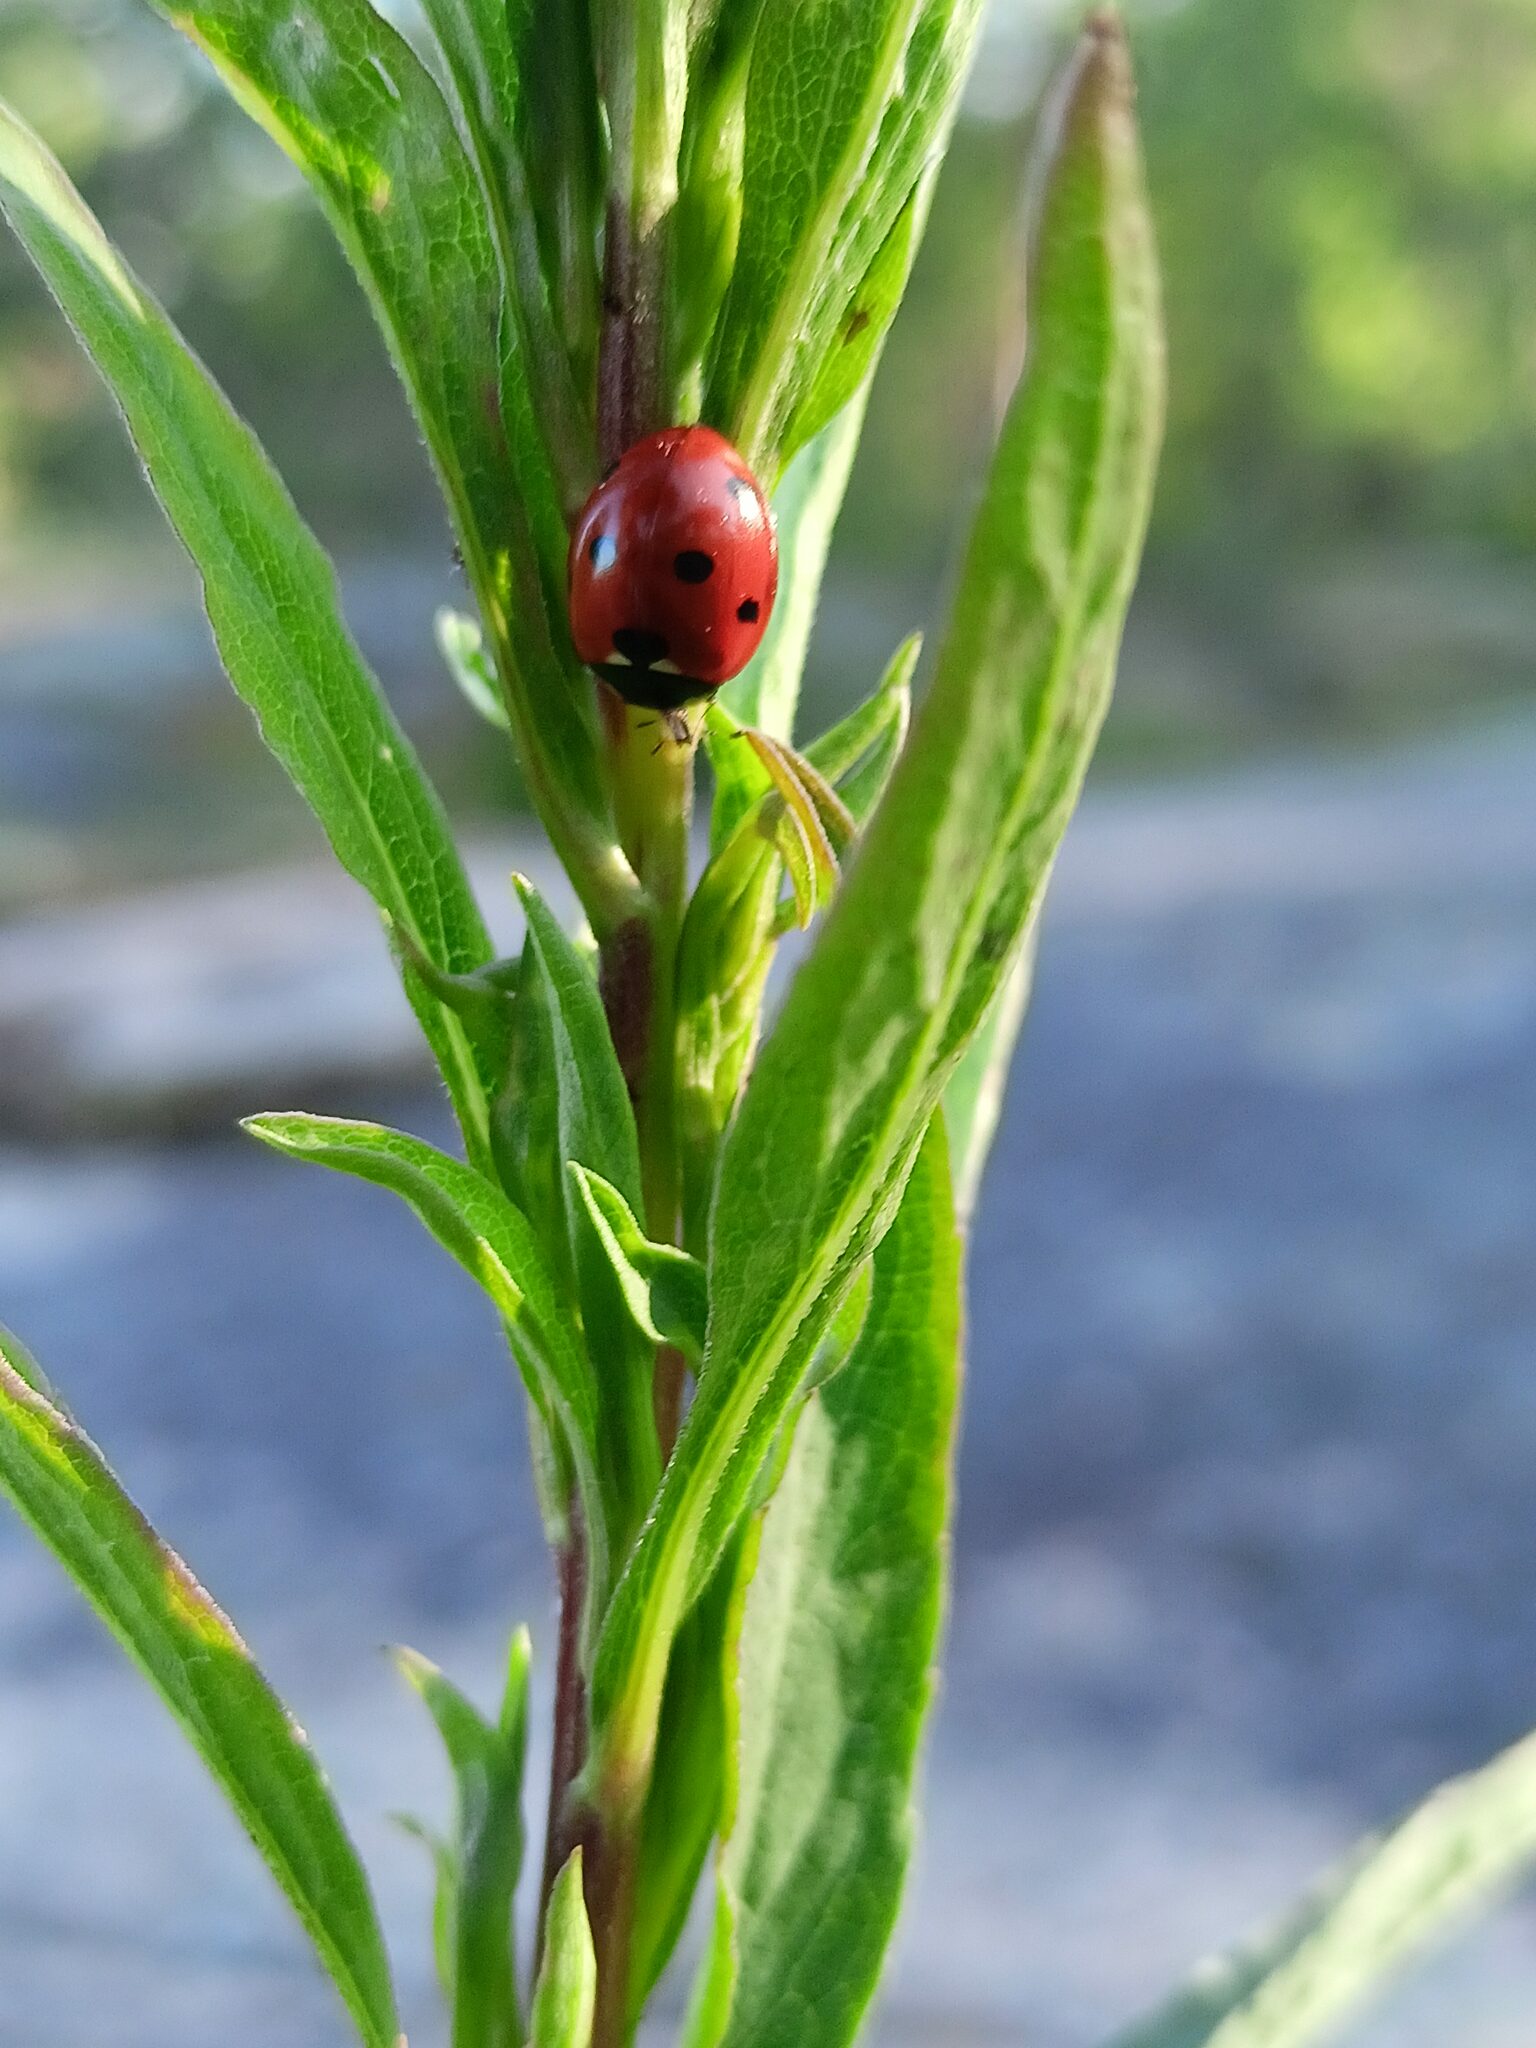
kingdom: Animalia
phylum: Arthropoda
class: Insecta
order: Coleoptera
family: Coccinellidae
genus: Coccinella
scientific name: Coccinella septempunctata
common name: Sevenspotted lady beetle
